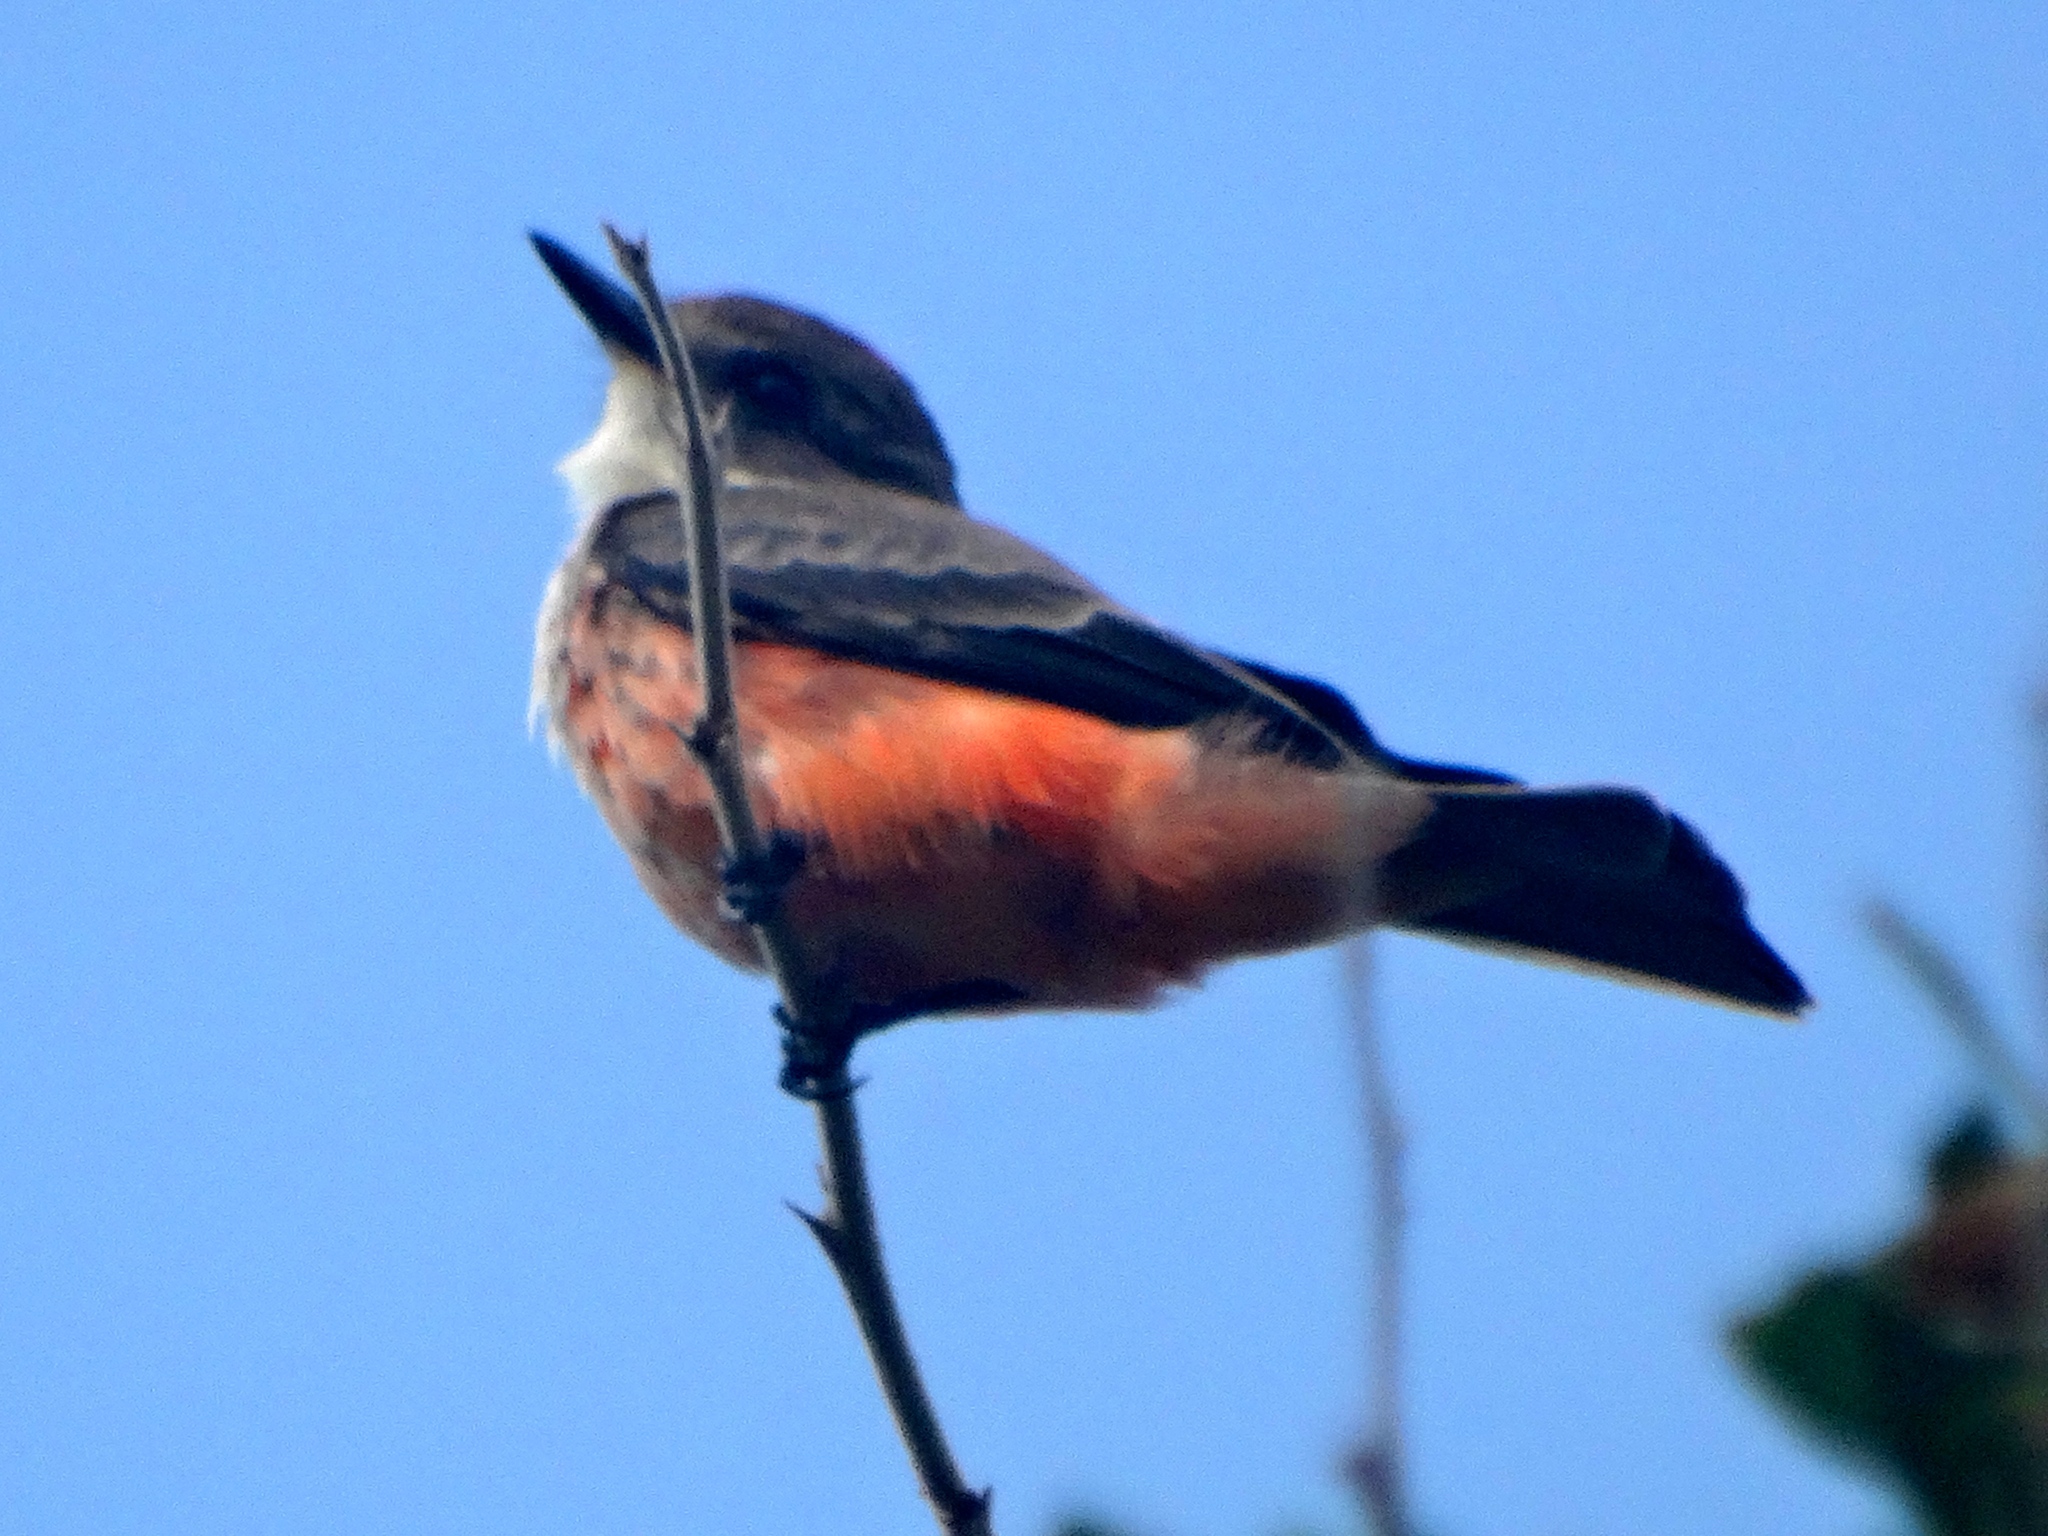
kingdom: Animalia
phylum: Chordata
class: Aves
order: Passeriformes
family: Tyrannidae
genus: Pyrocephalus
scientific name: Pyrocephalus rubinus
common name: Vermilion flycatcher
